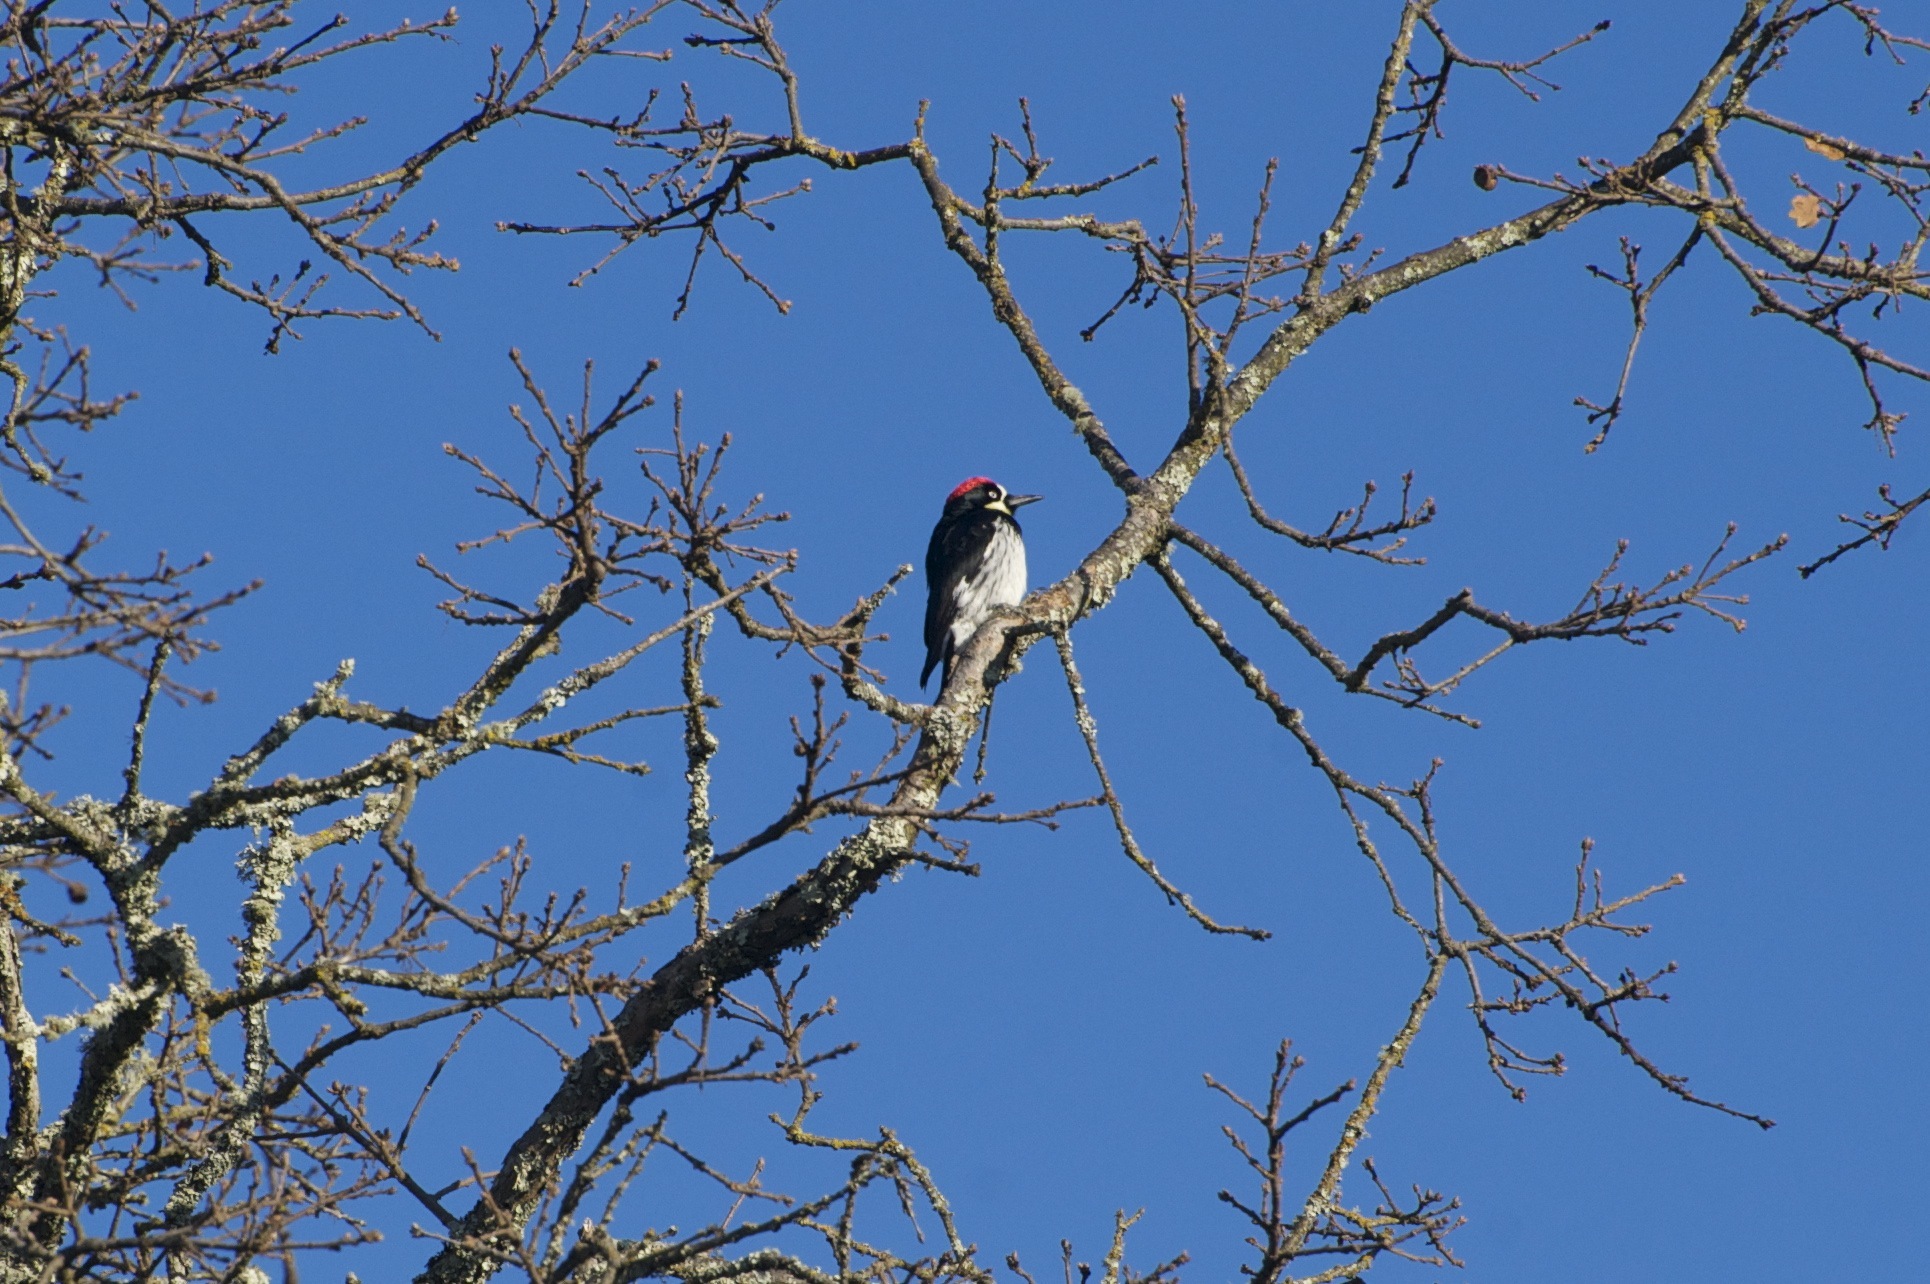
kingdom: Animalia
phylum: Chordata
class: Aves
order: Piciformes
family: Picidae
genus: Melanerpes
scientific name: Melanerpes formicivorus
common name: Acorn woodpecker
